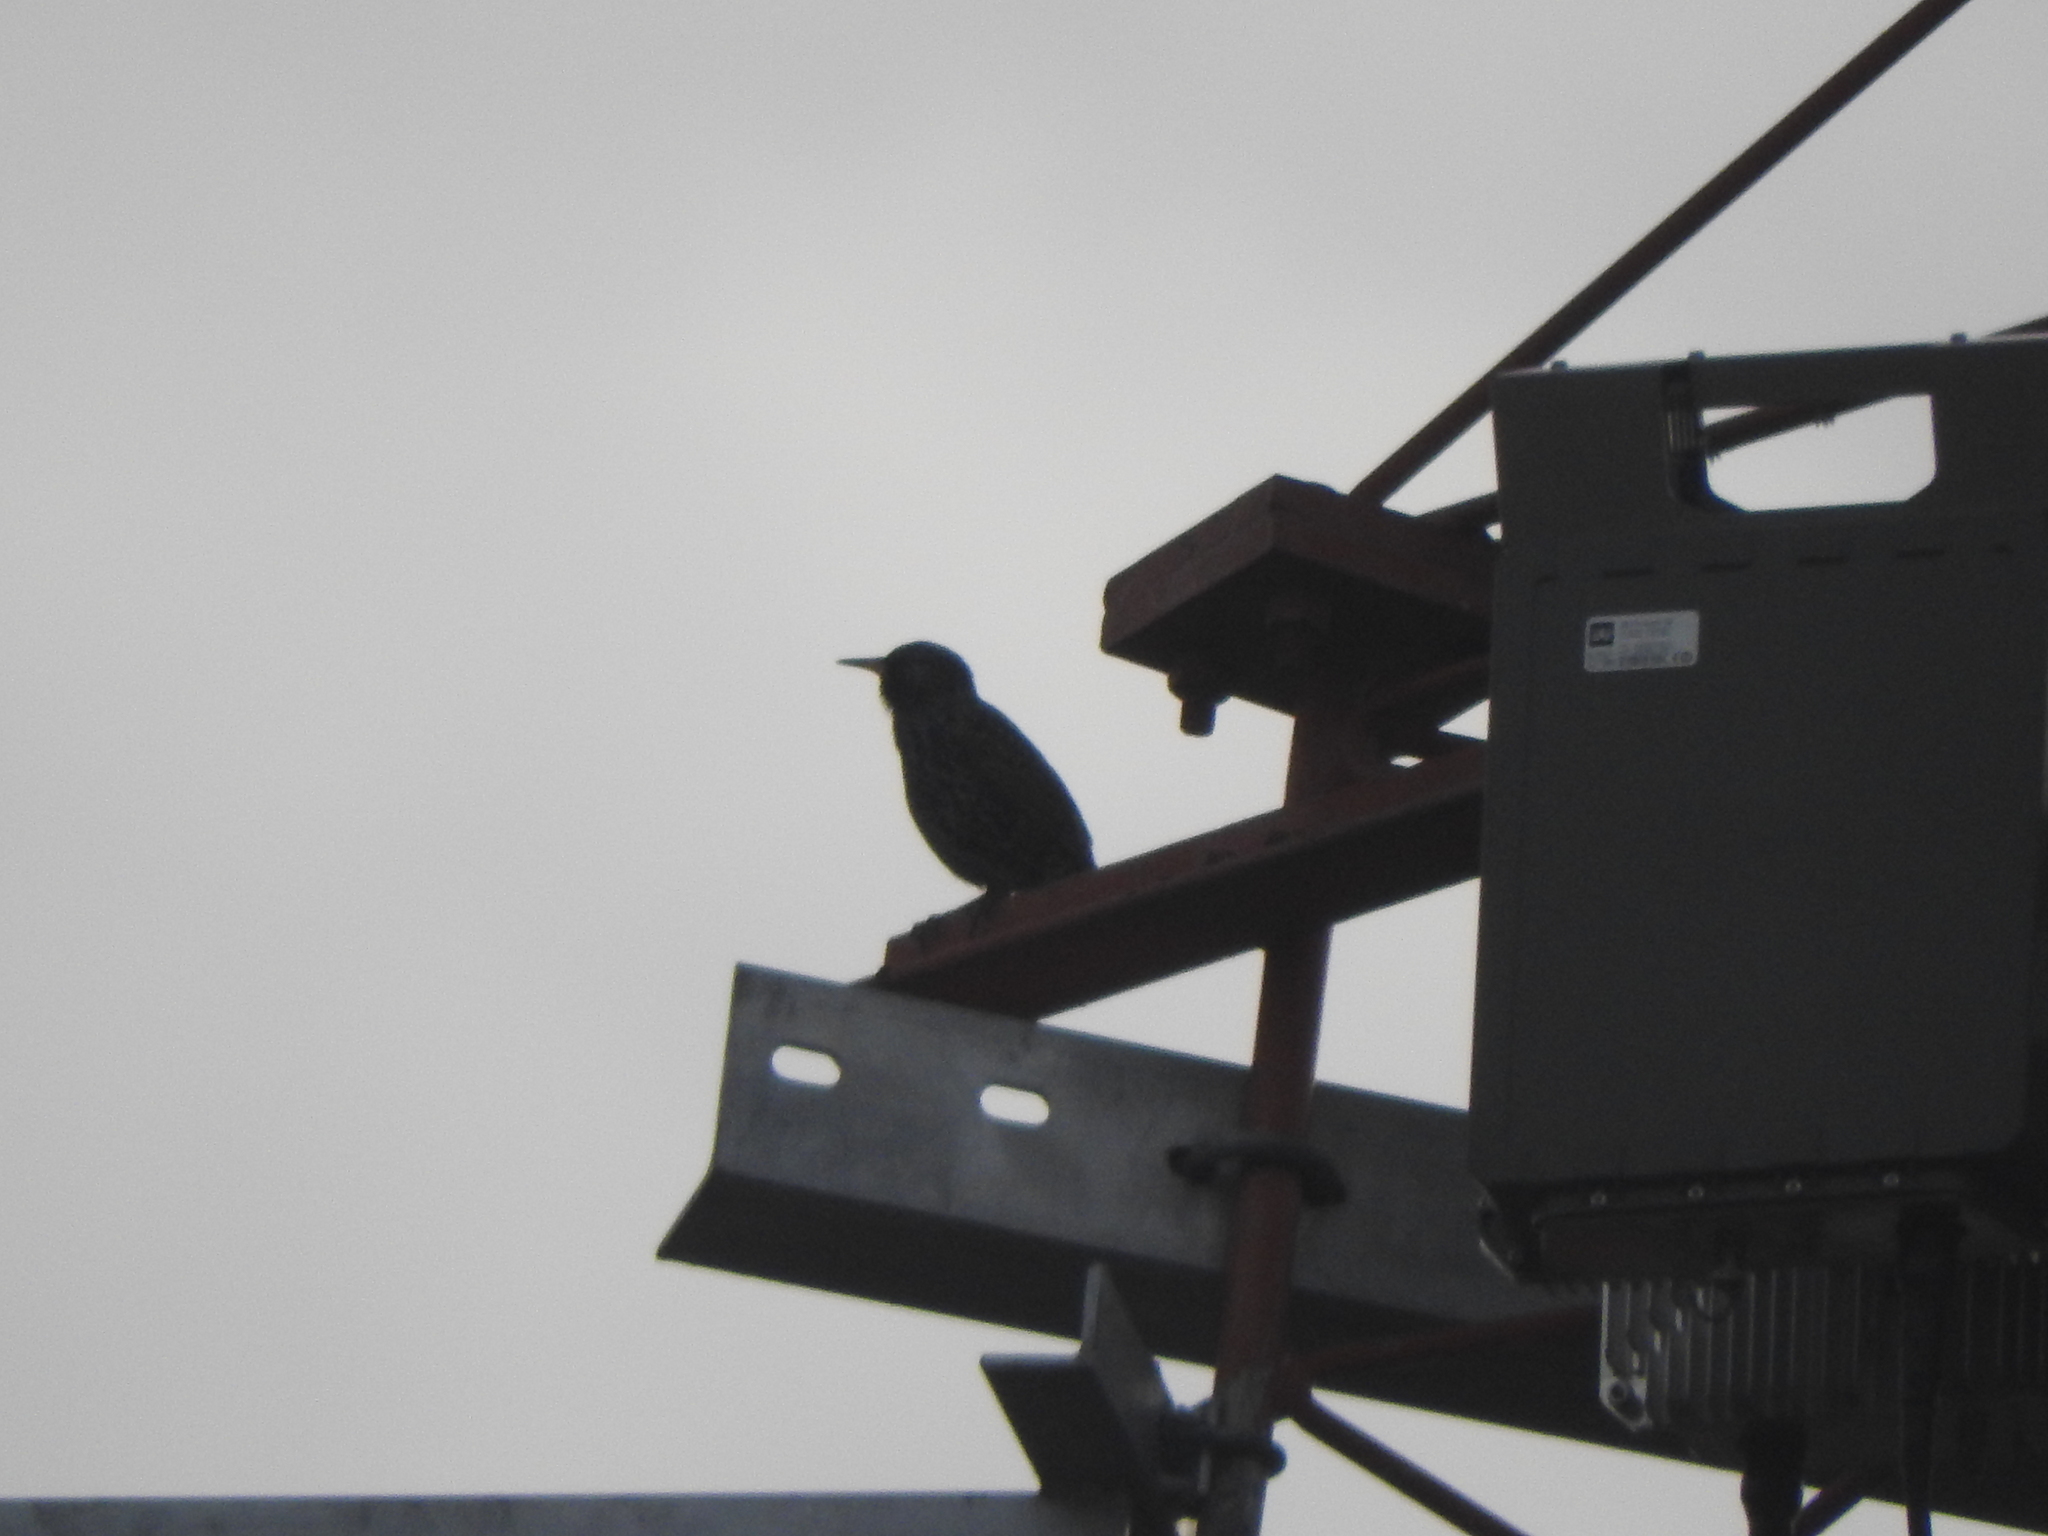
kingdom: Animalia
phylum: Chordata
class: Aves
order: Passeriformes
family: Sturnidae
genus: Sturnus
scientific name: Sturnus vulgaris
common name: Common starling
